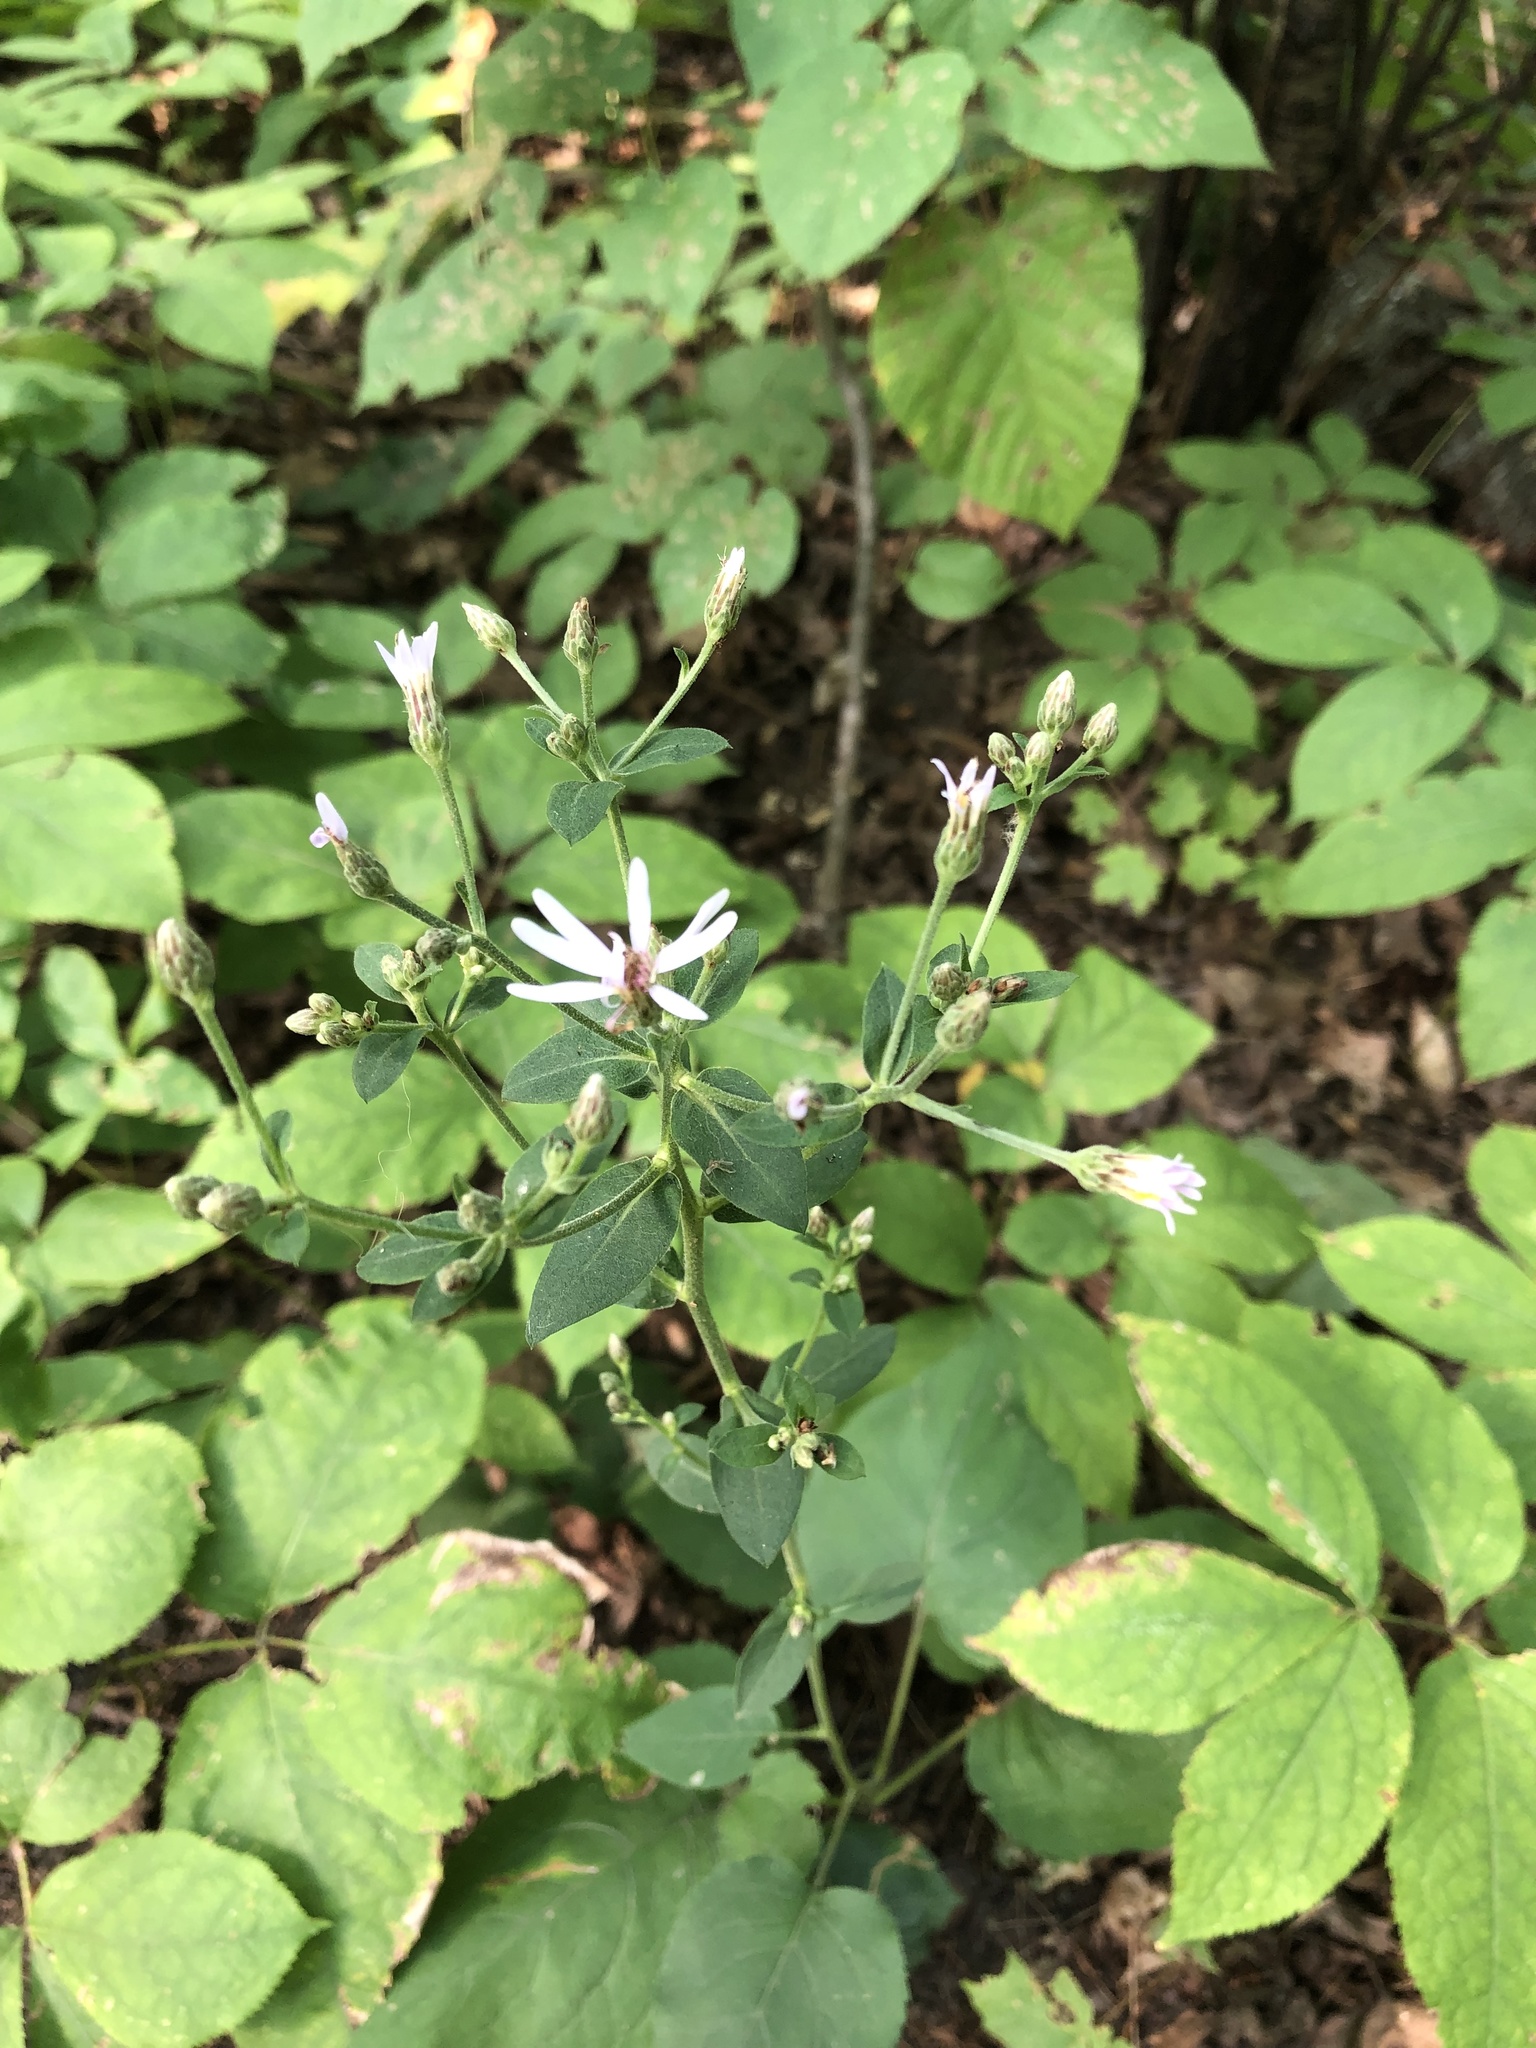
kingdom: Plantae
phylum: Tracheophyta
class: Magnoliopsida
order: Asterales
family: Asteraceae
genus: Eurybia
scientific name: Eurybia macrophylla
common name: Big-leaved aster
